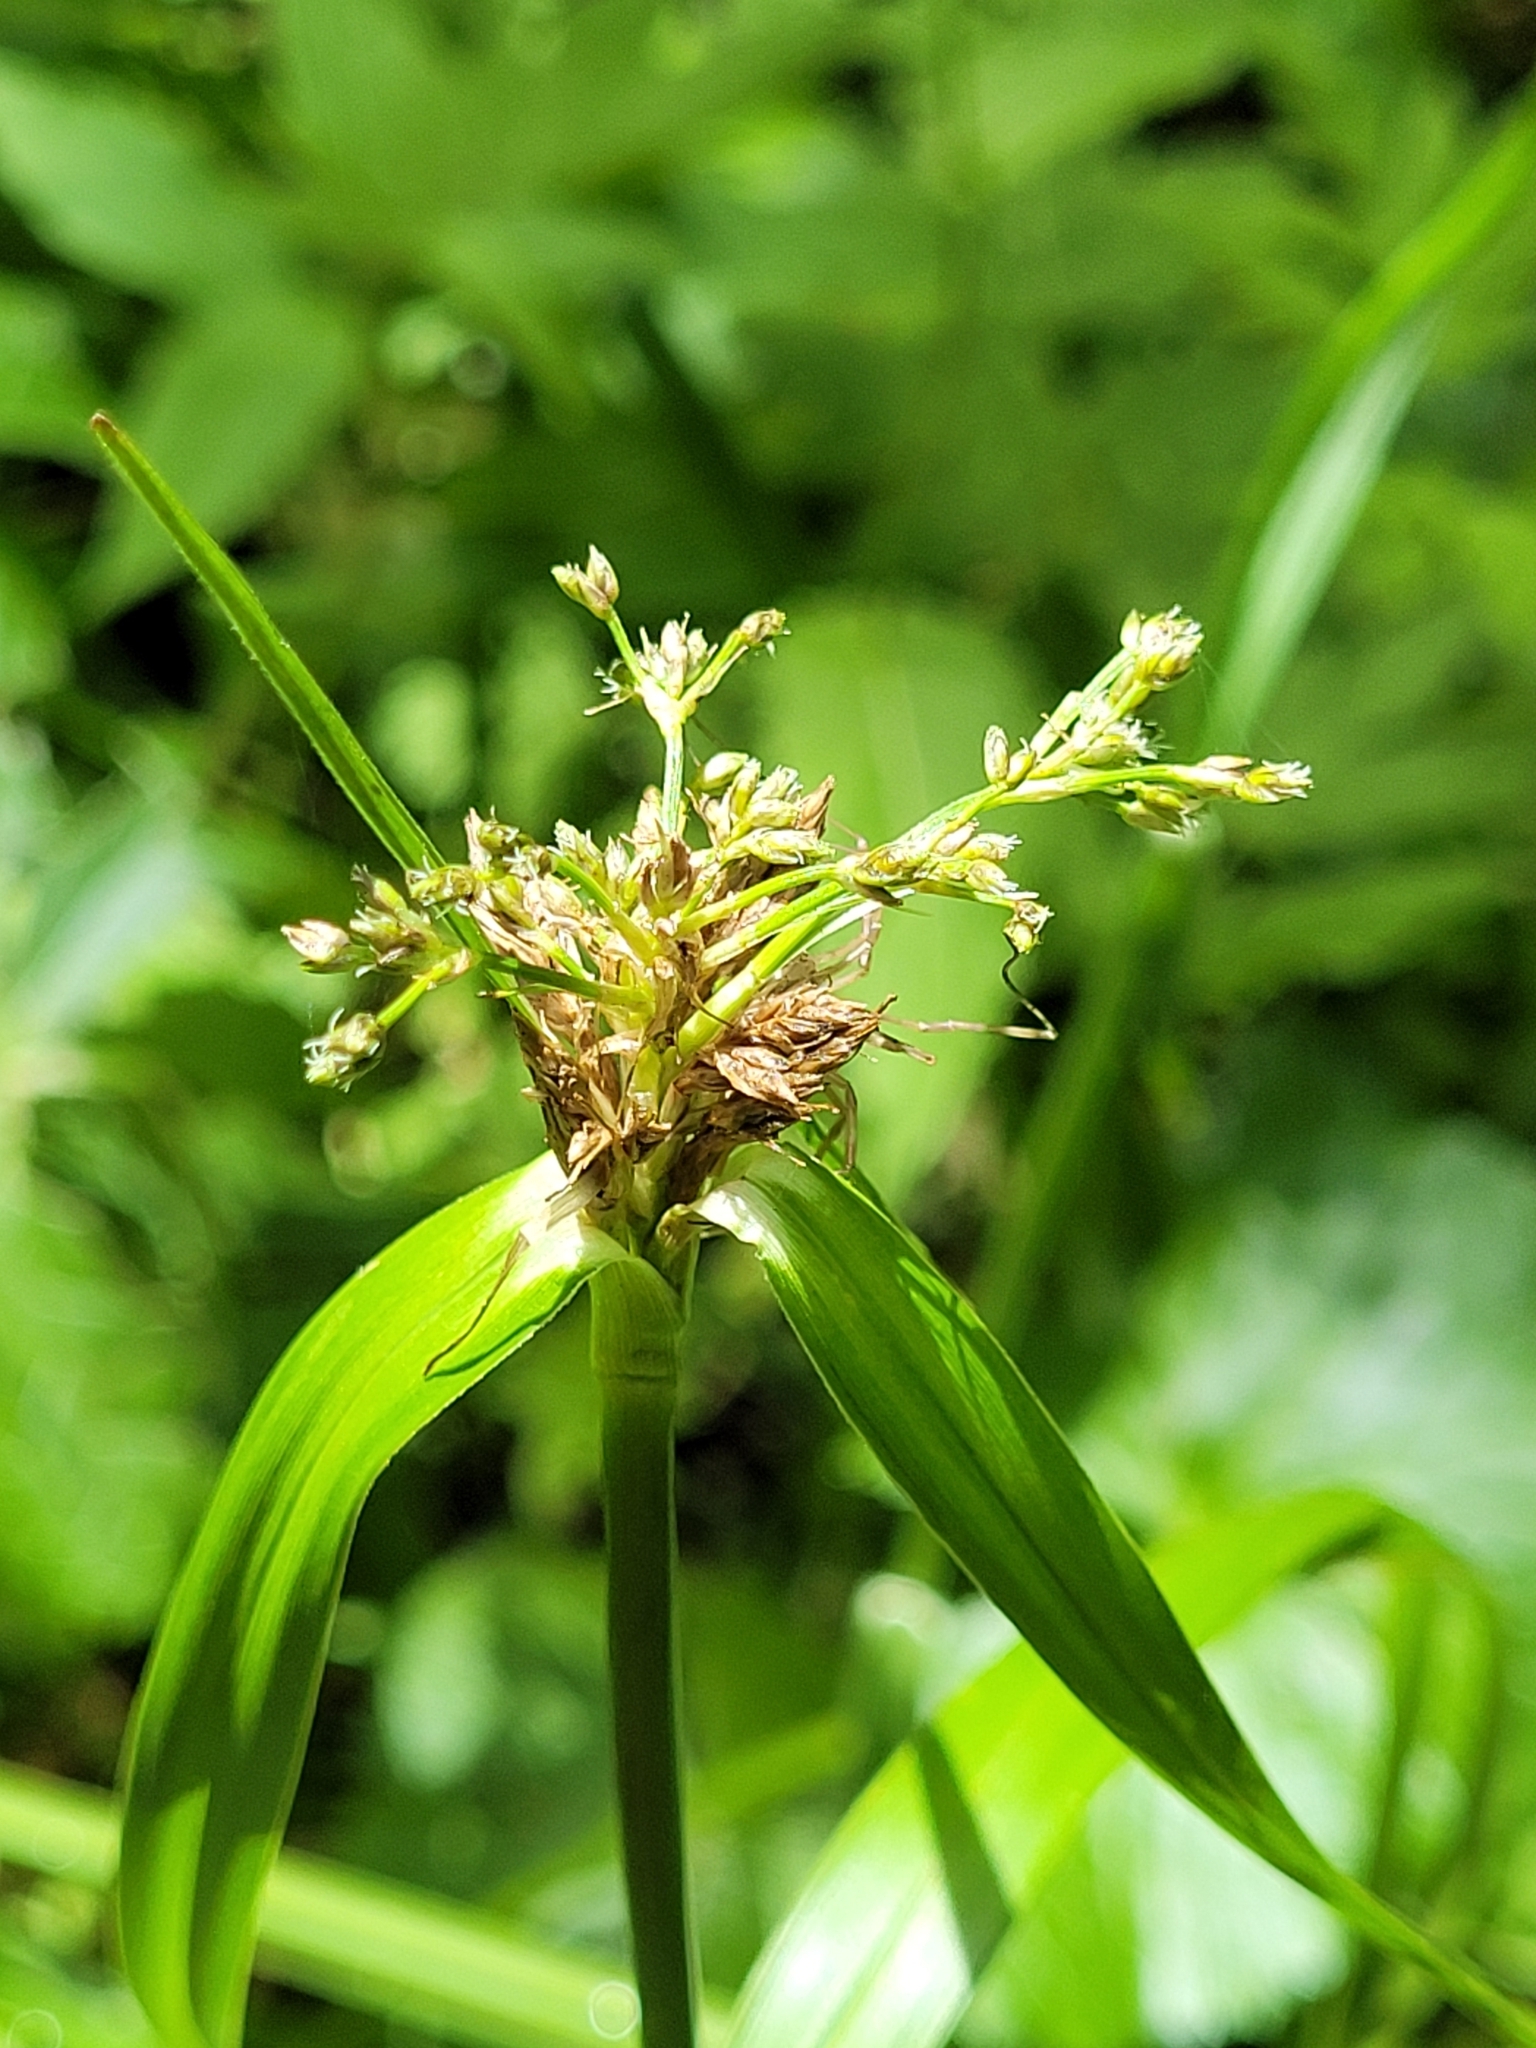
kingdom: Plantae
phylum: Tracheophyta
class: Liliopsida
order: Poales
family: Cyperaceae
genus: Scirpus
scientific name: Scirpus sylvaticus
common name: Wood club-rush
